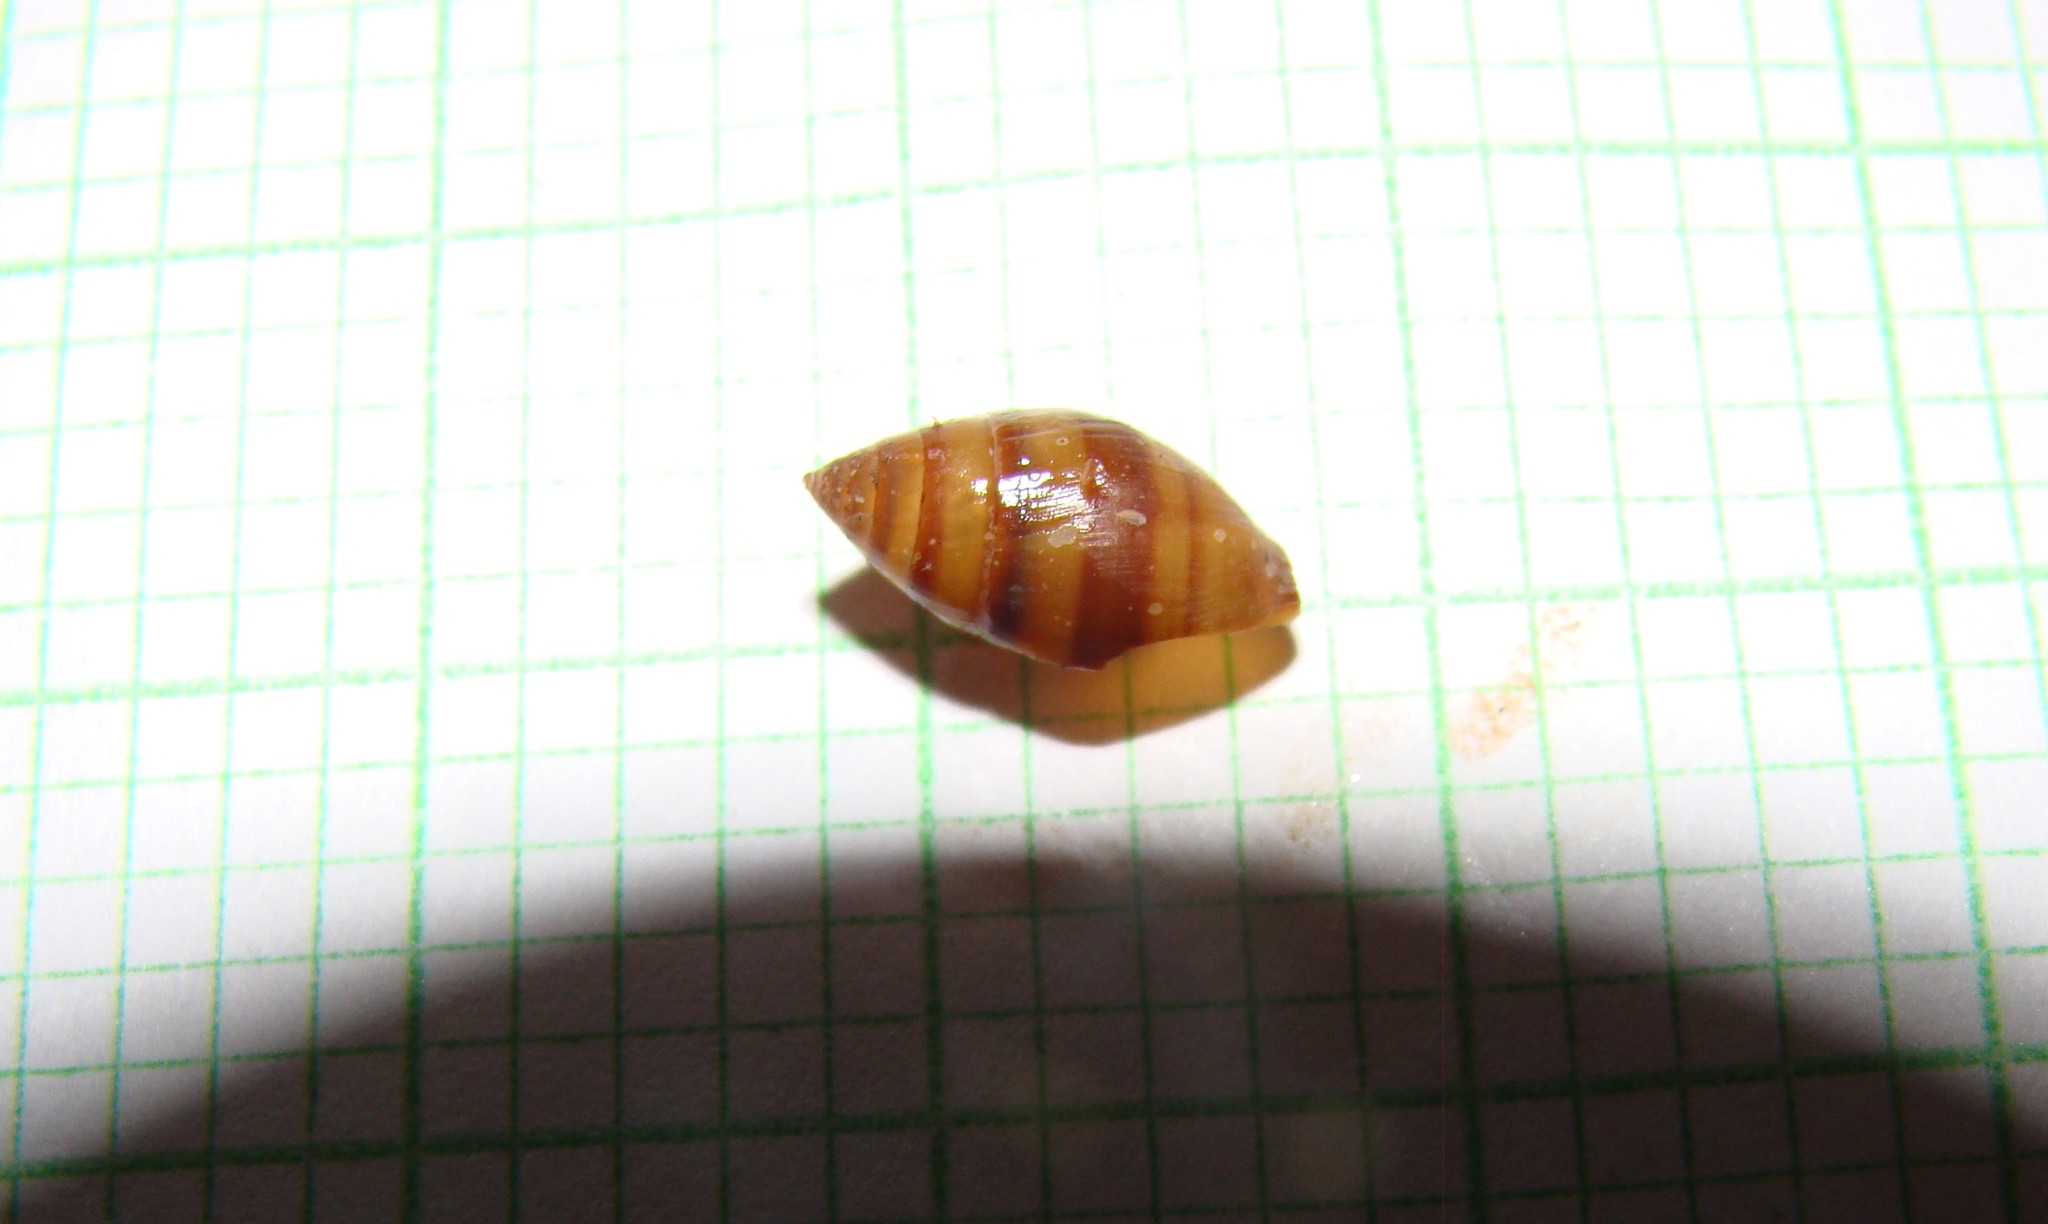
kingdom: Animalia
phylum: Mollusca
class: Gastropoda
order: Ellobiida
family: Ellobiidae
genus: Pleuroloba
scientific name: Pleuroloba costellaris
